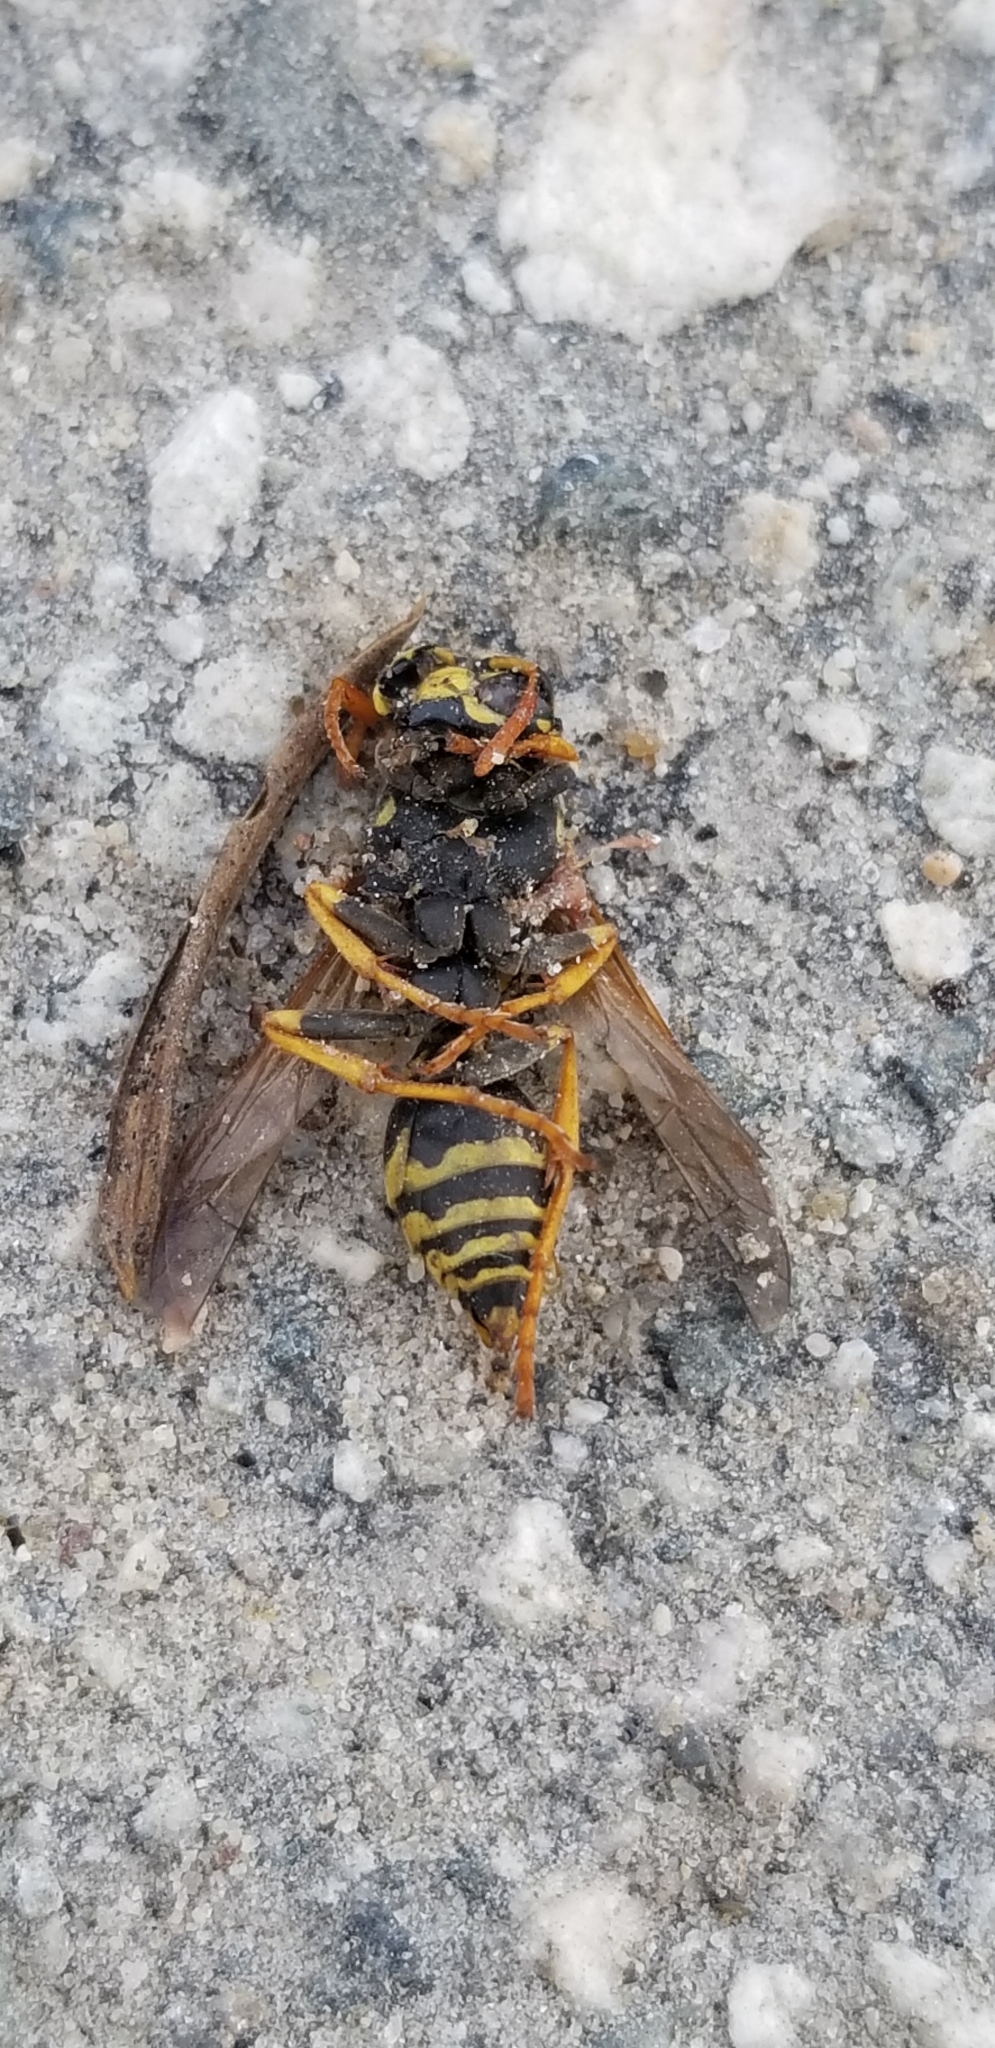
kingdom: Animalia
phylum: Arthropoda
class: Insecta
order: Hymenoptera
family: Eumenidae
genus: Polistes
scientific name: Polistes dominula
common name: Paper wasp
